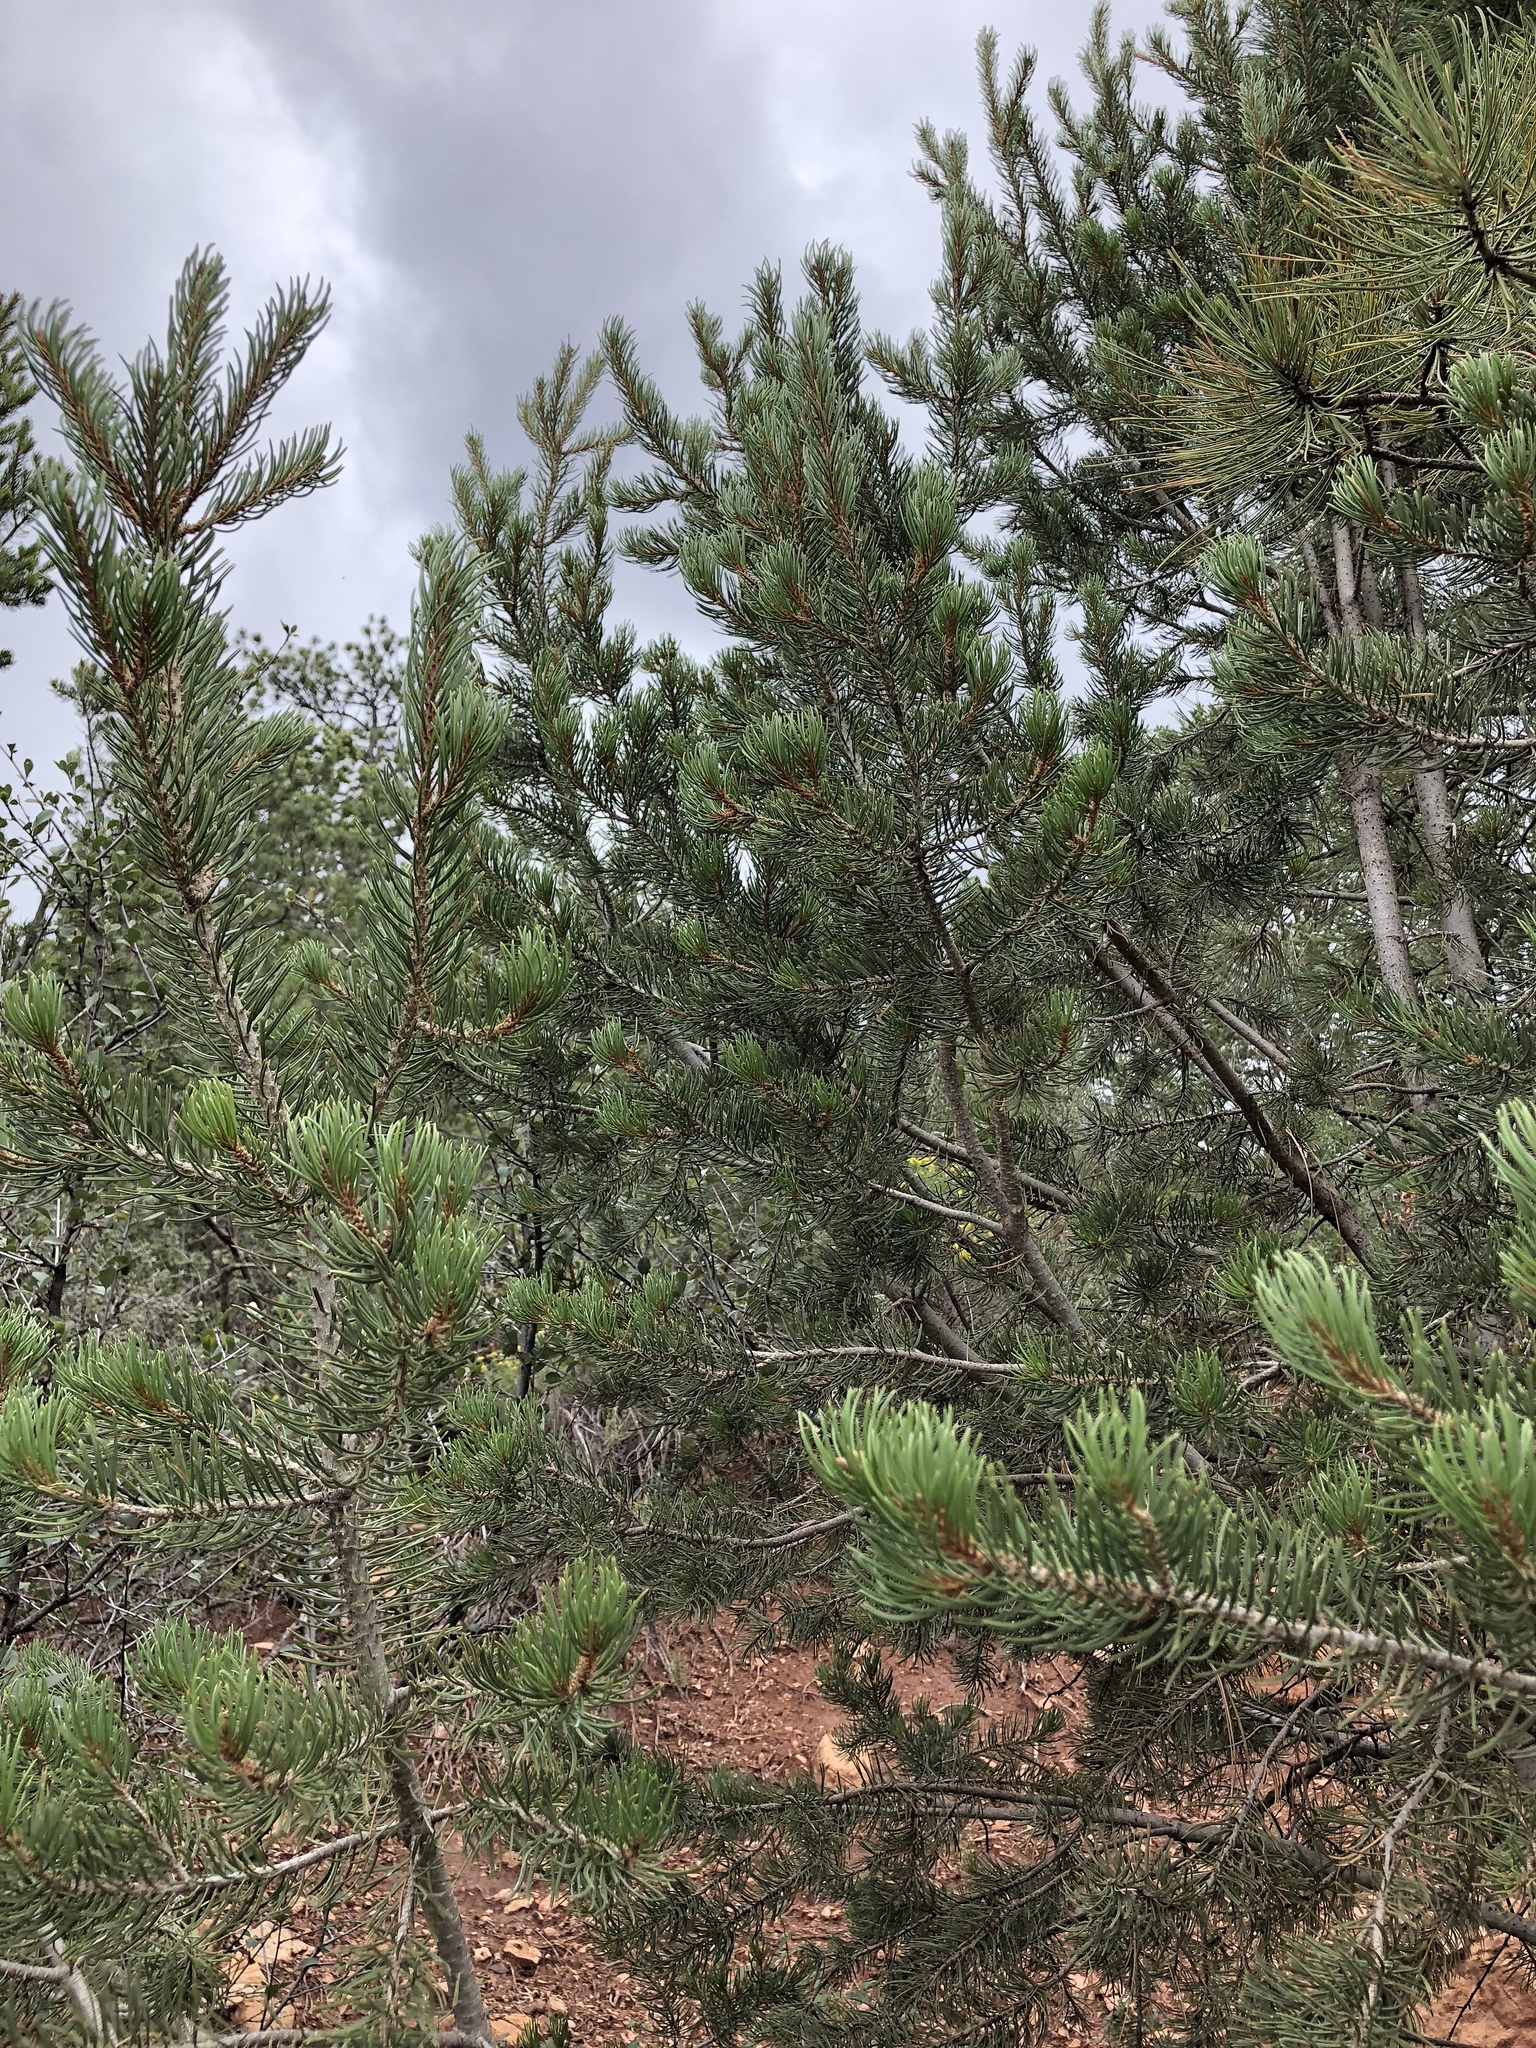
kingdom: Plantae
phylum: Tracheophyta
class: Pinopsida
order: Pinales
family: Pinaceae
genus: Pinus
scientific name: Pinus edulis
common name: Colorado pinyon
